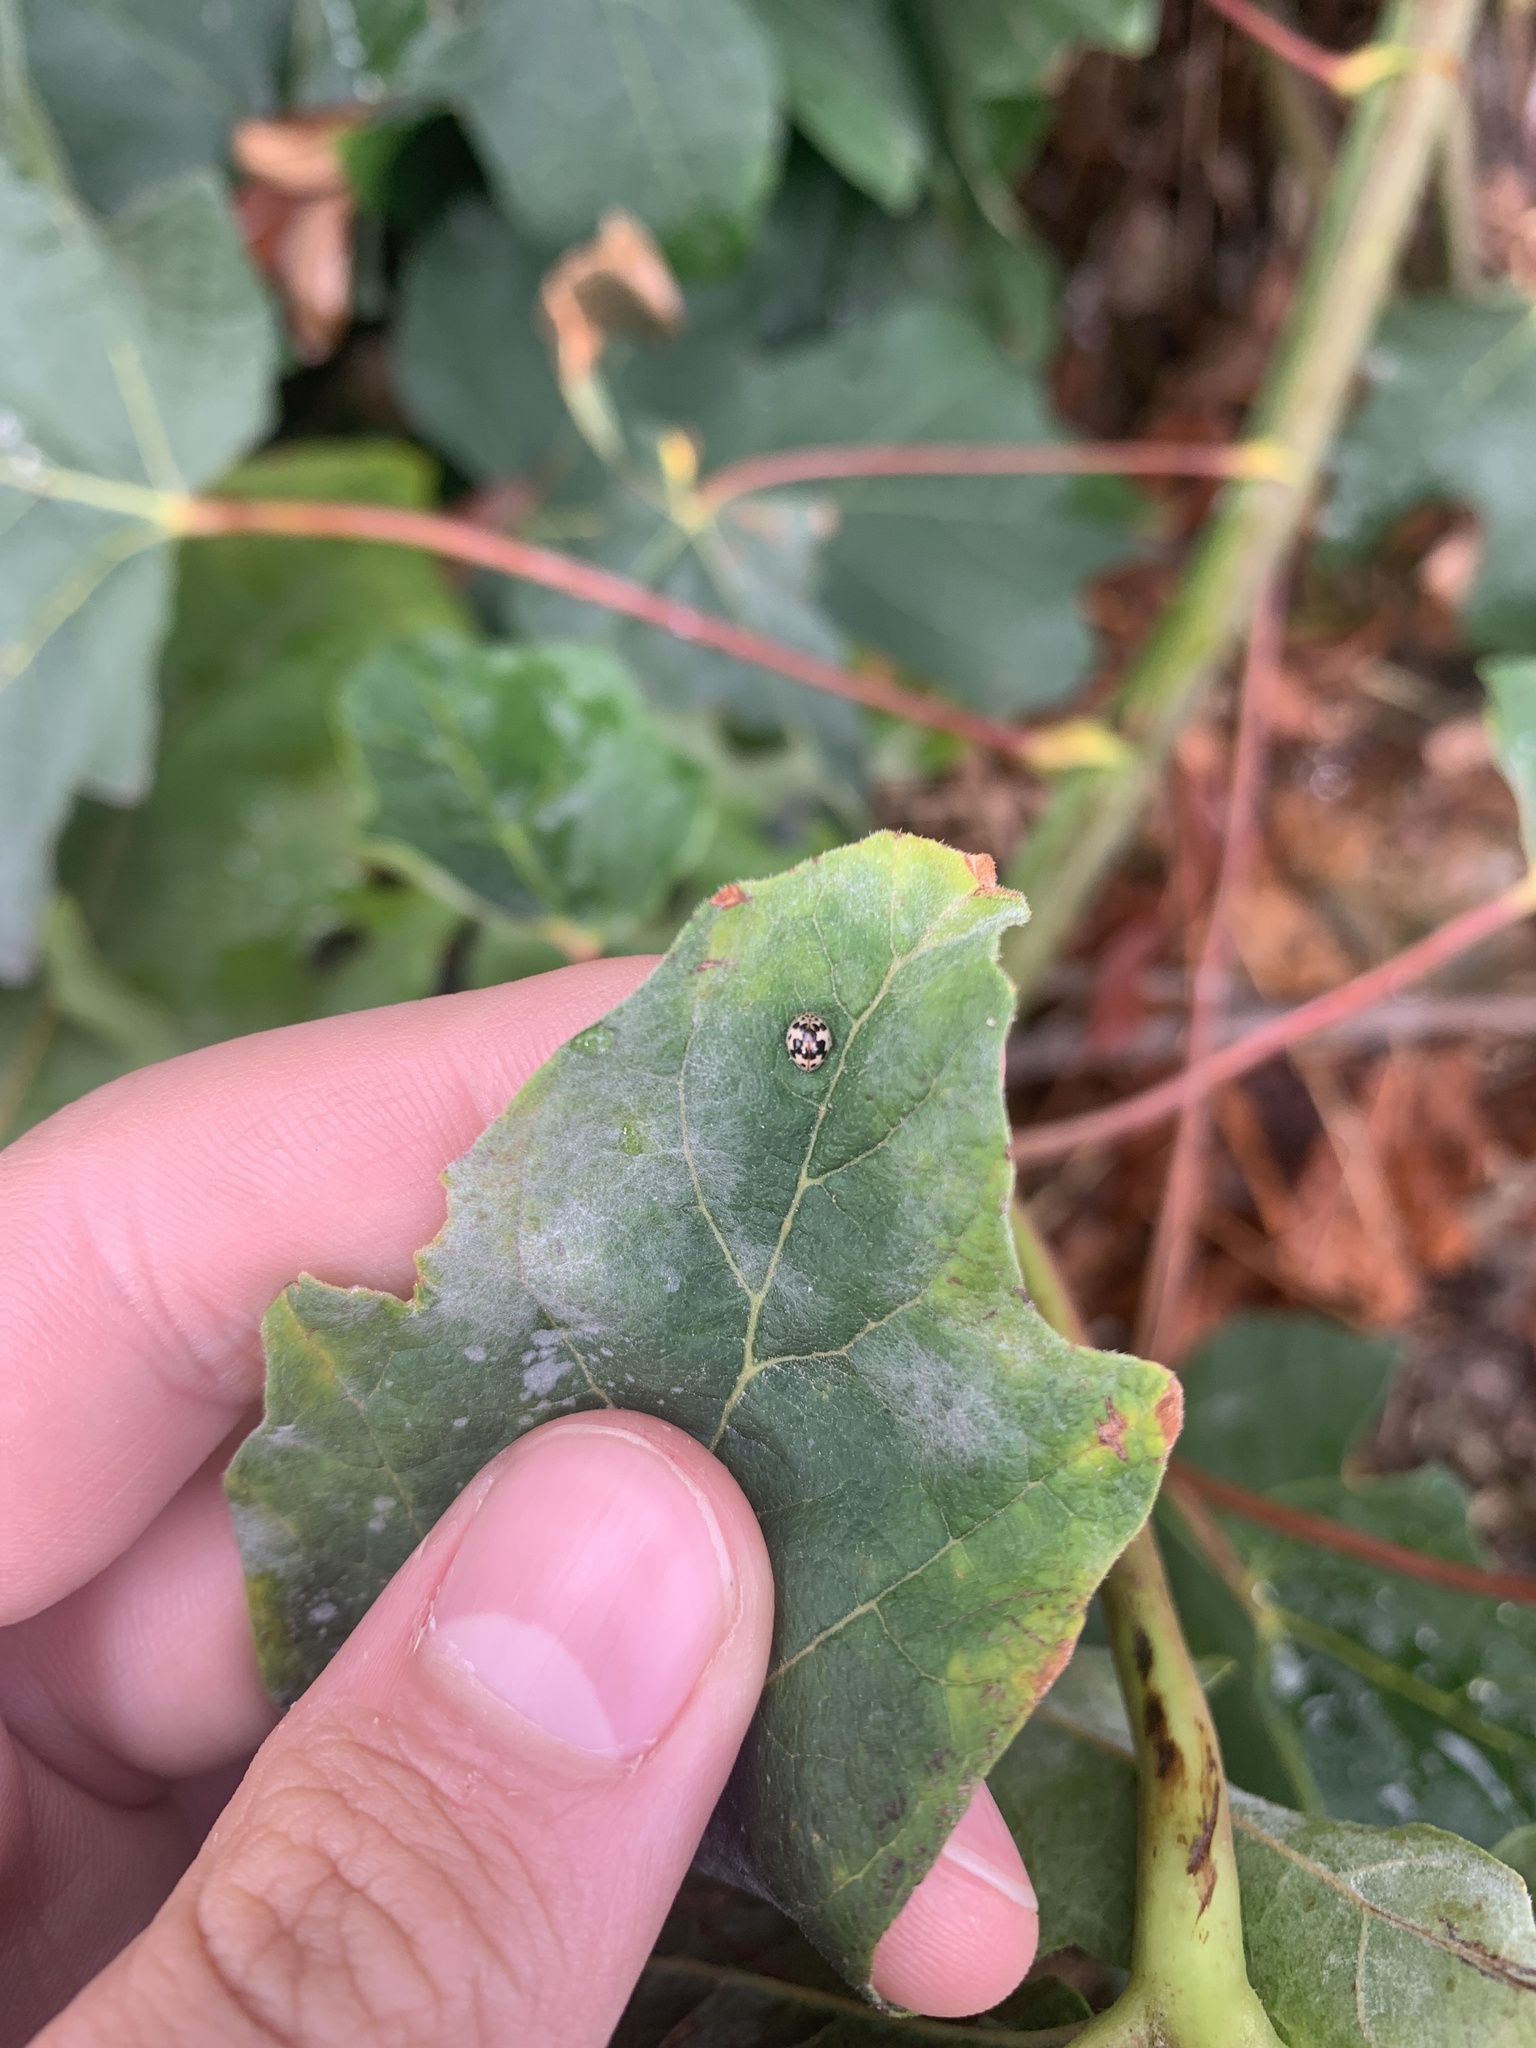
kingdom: Animalia
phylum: Arthropoda
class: Insecta
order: Coleoptera
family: Coccinellidae
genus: Psyllobora
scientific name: Psyllobora borealis
